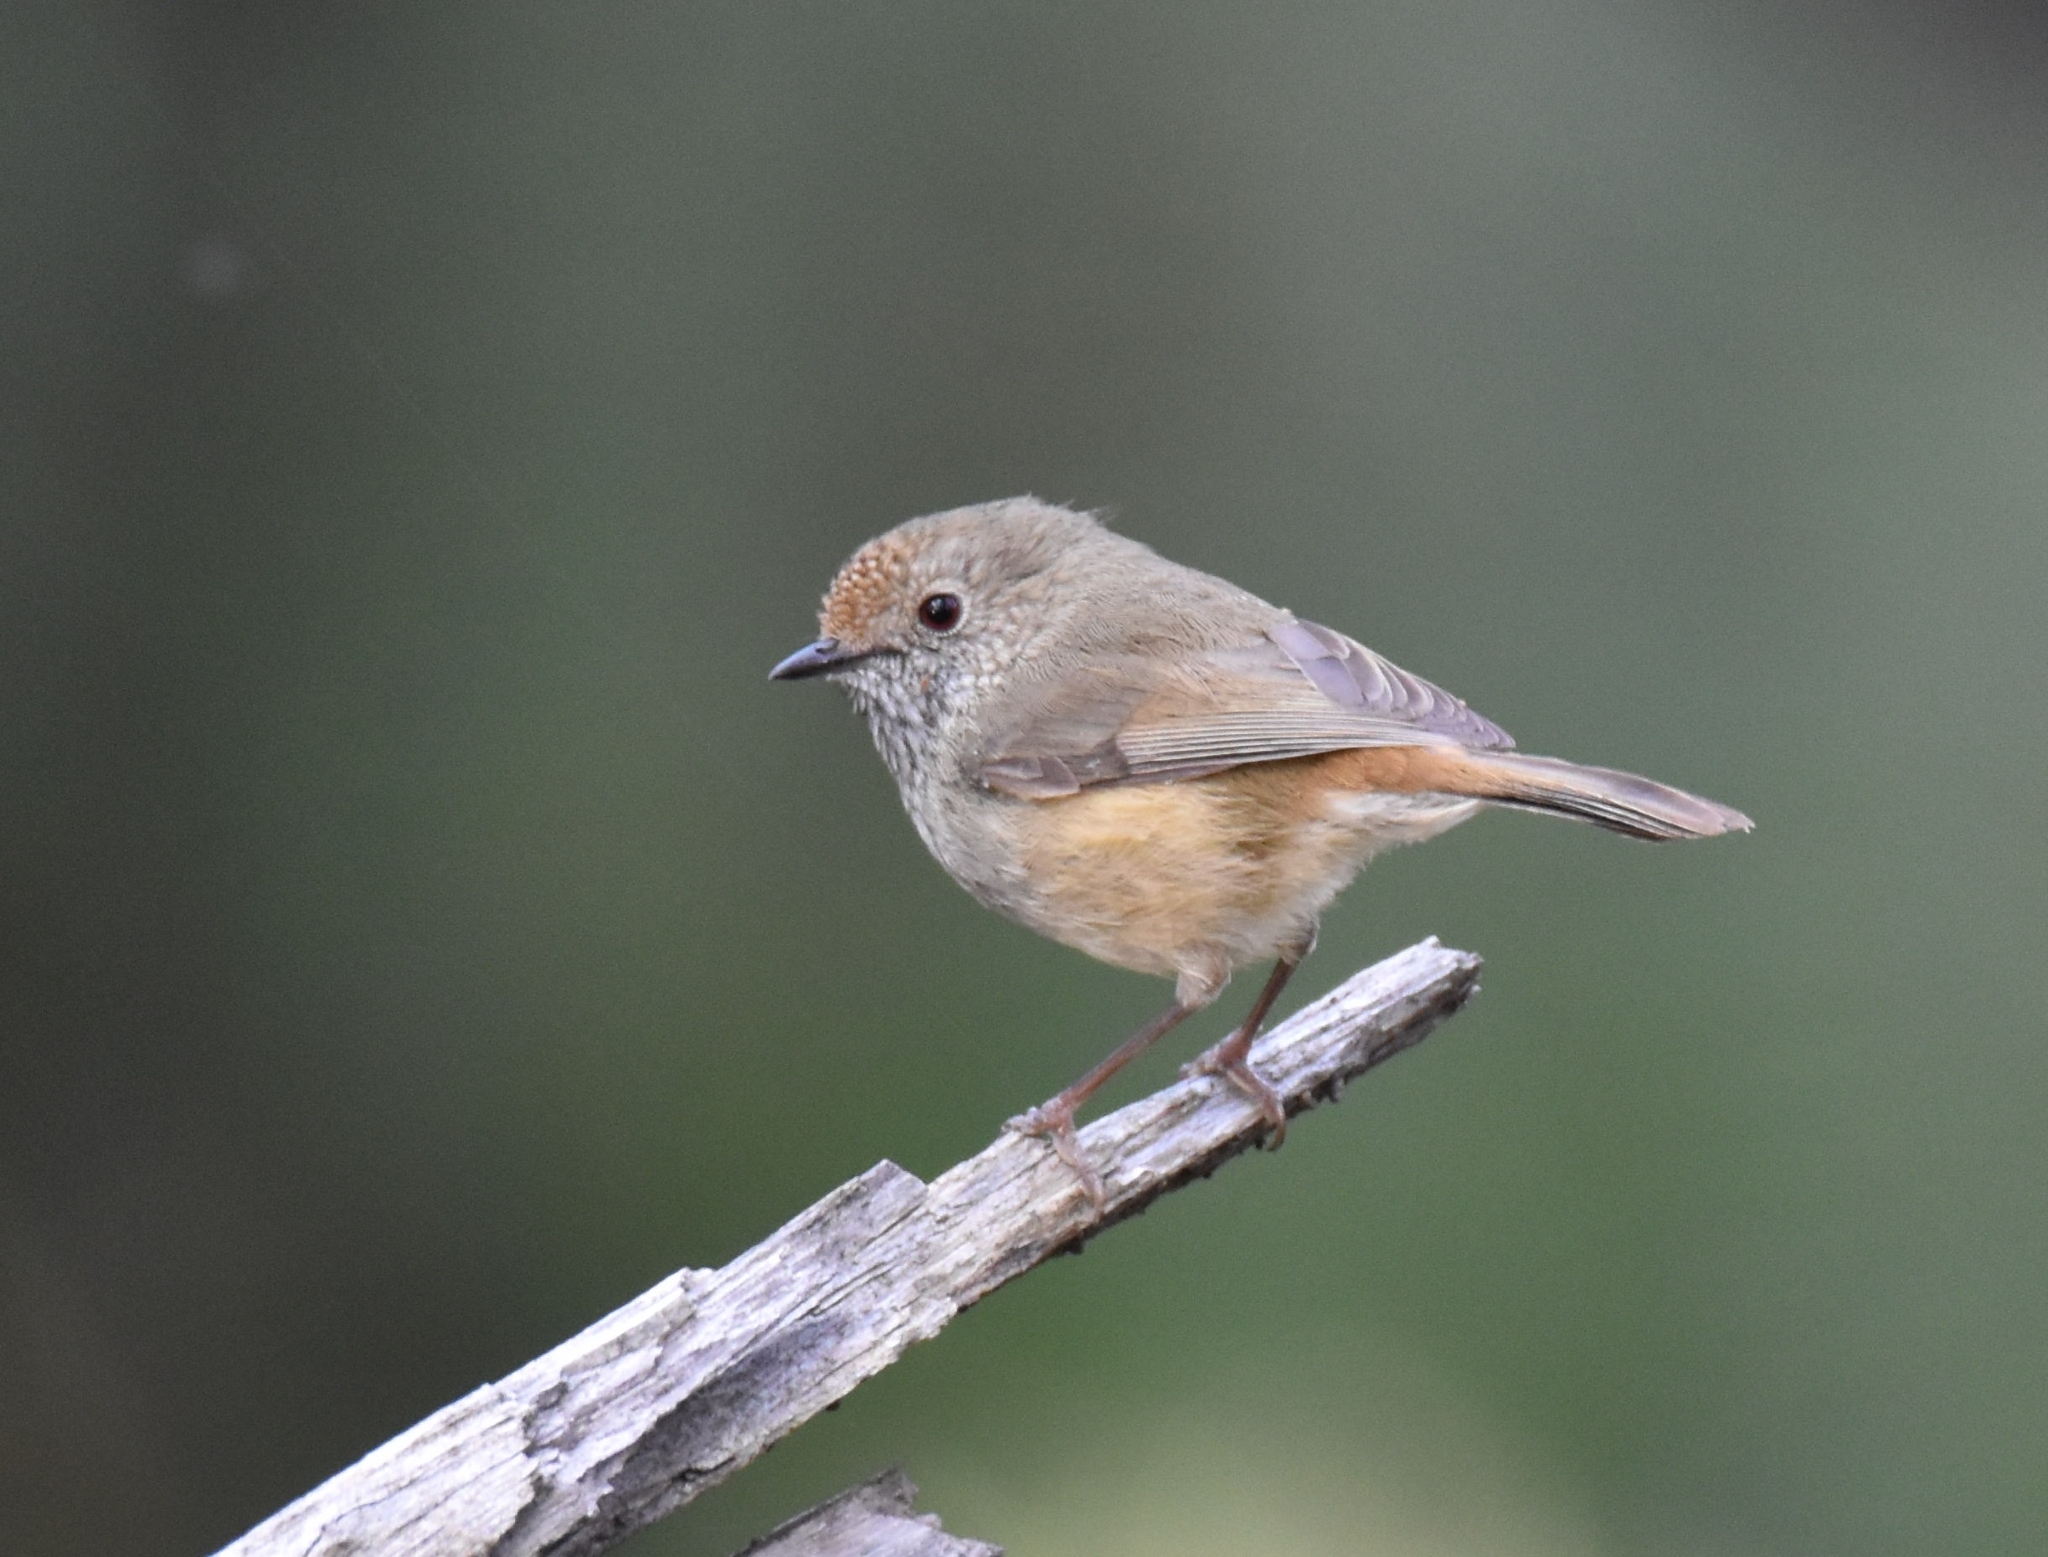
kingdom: Animalia
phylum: Chordata
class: Aves
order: Passeriformes
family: Acanthizidae
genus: Acanthiza
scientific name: Acanthiza pusilla
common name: Brown thornbill
